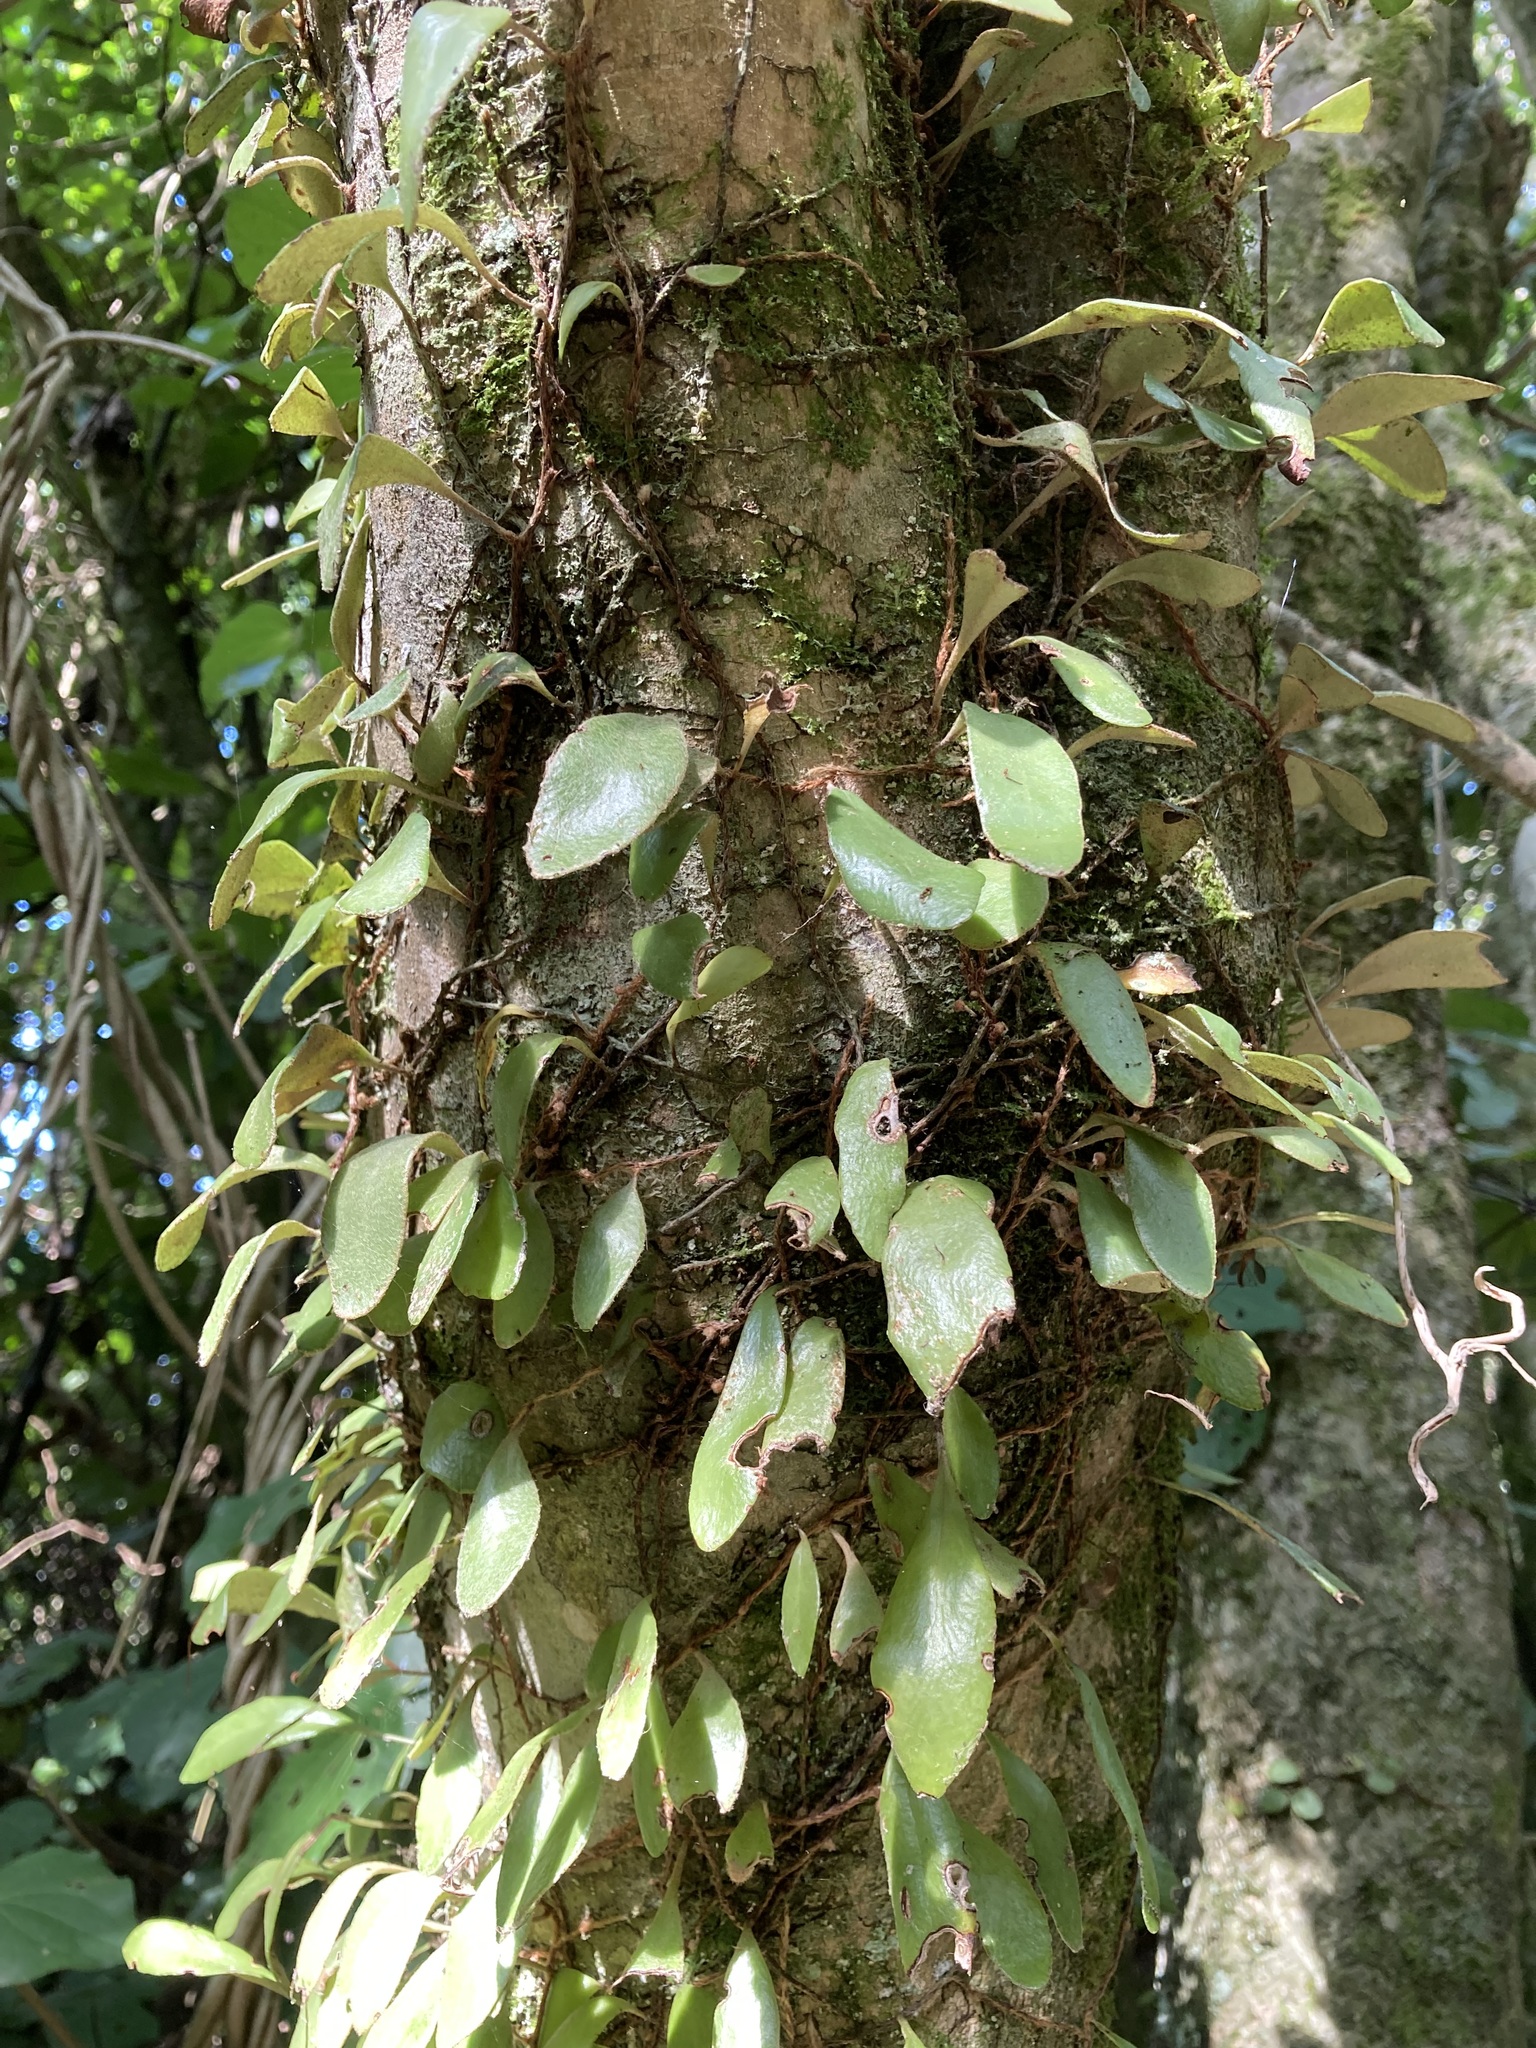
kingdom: Plantae
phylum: Tracheophyta
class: Polypodiopsida
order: Polypodiales
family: Polypodiaceae
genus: Pyrrosia
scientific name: Pyrrosia eleagnifolia
